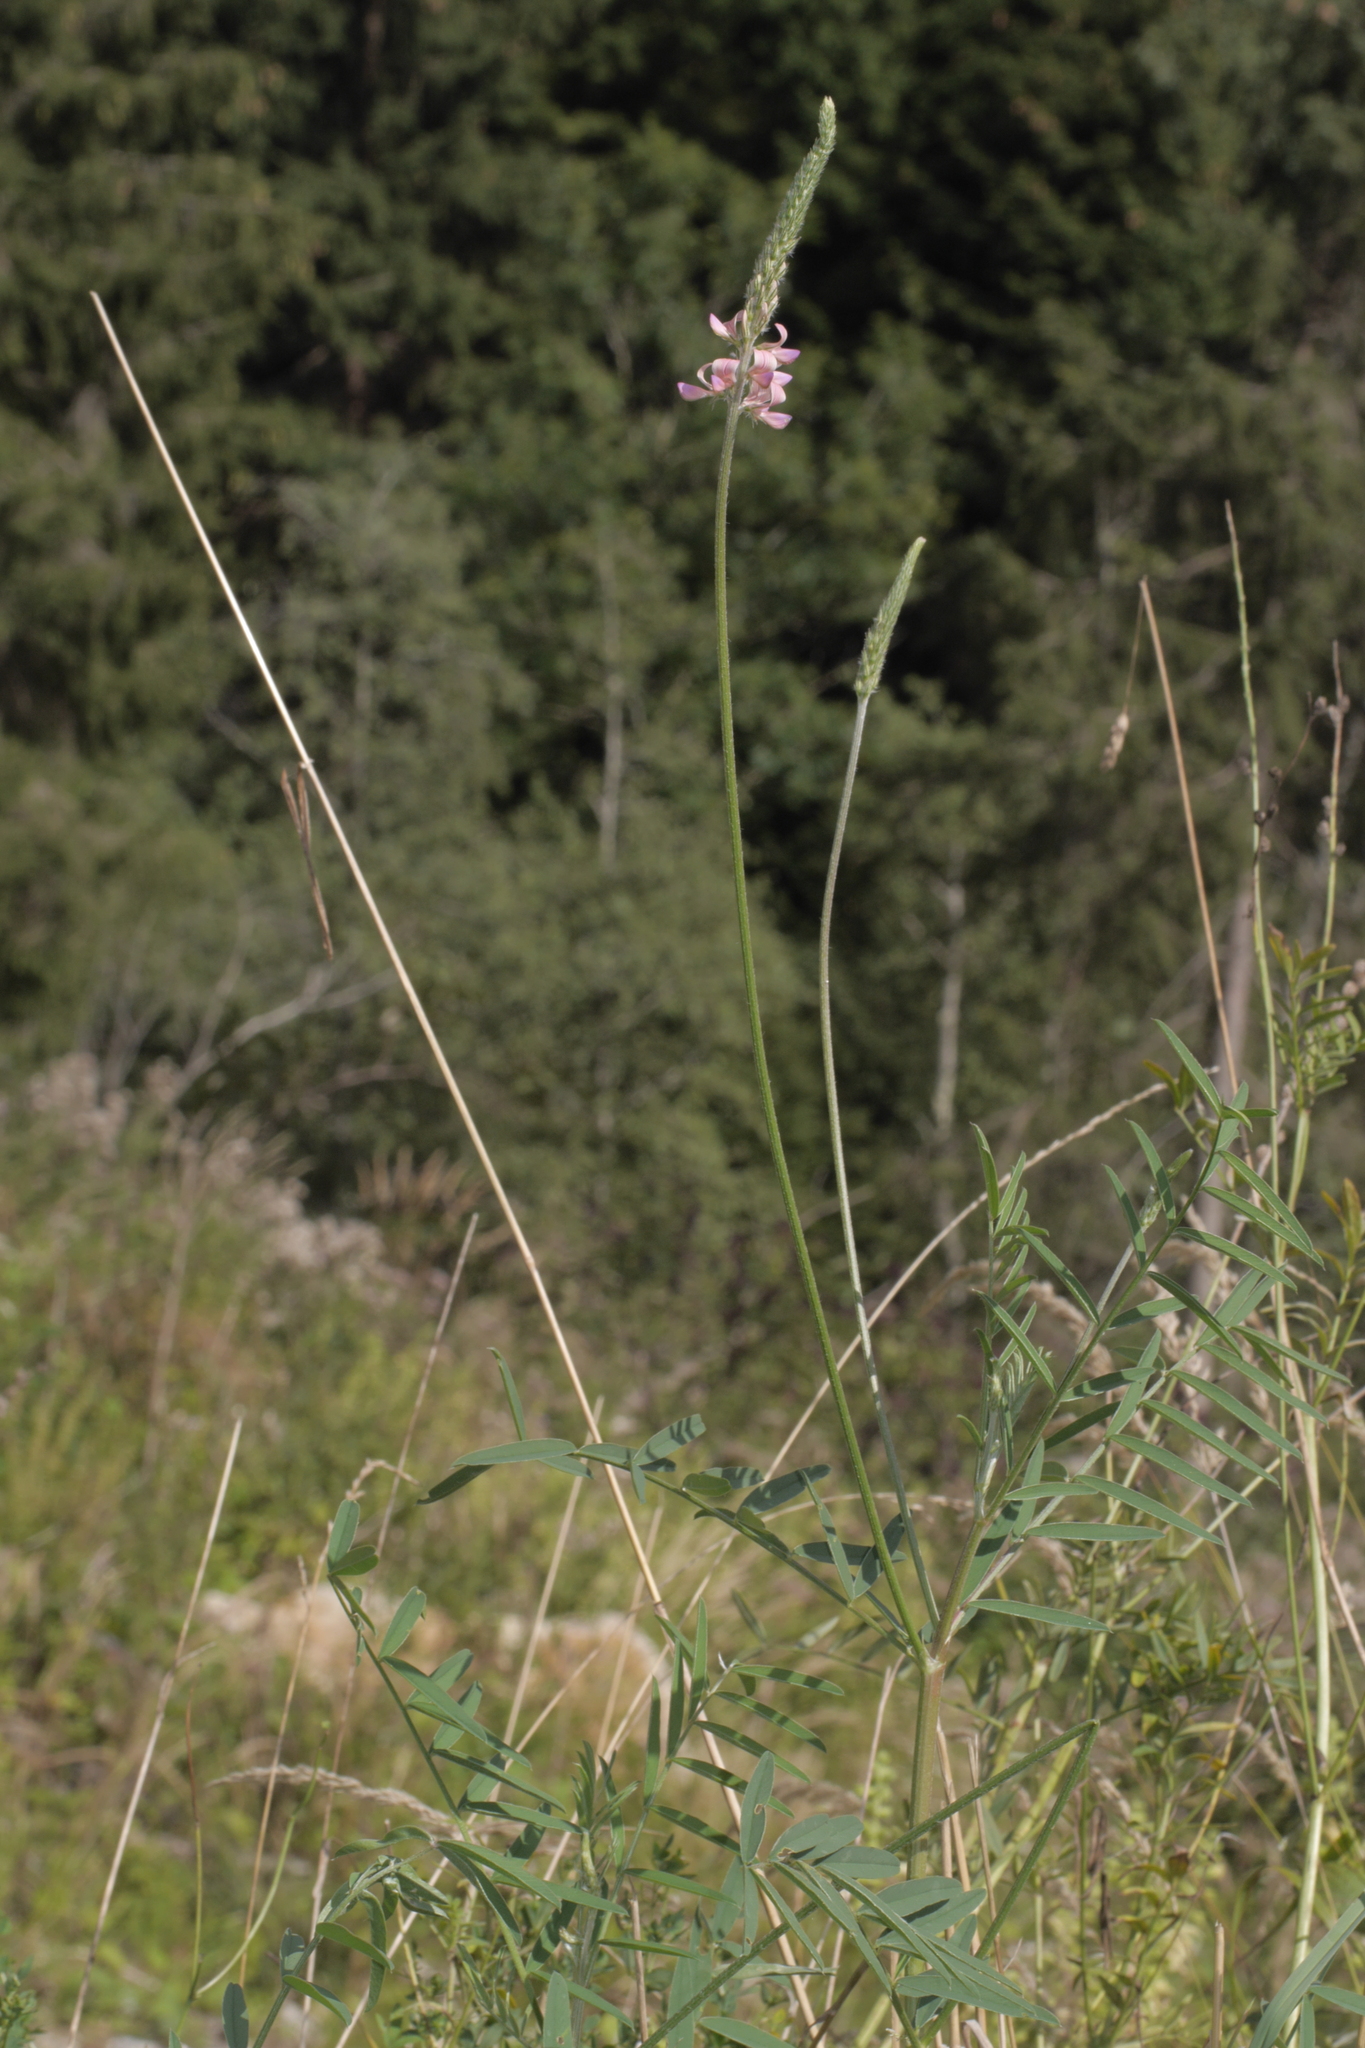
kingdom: Plantae
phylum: Tracheophyta
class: Magnoliopsida
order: Fabales
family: Fabaceae
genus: Onobrychis
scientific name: Onobrychis viciifolia
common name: Sainfoin
